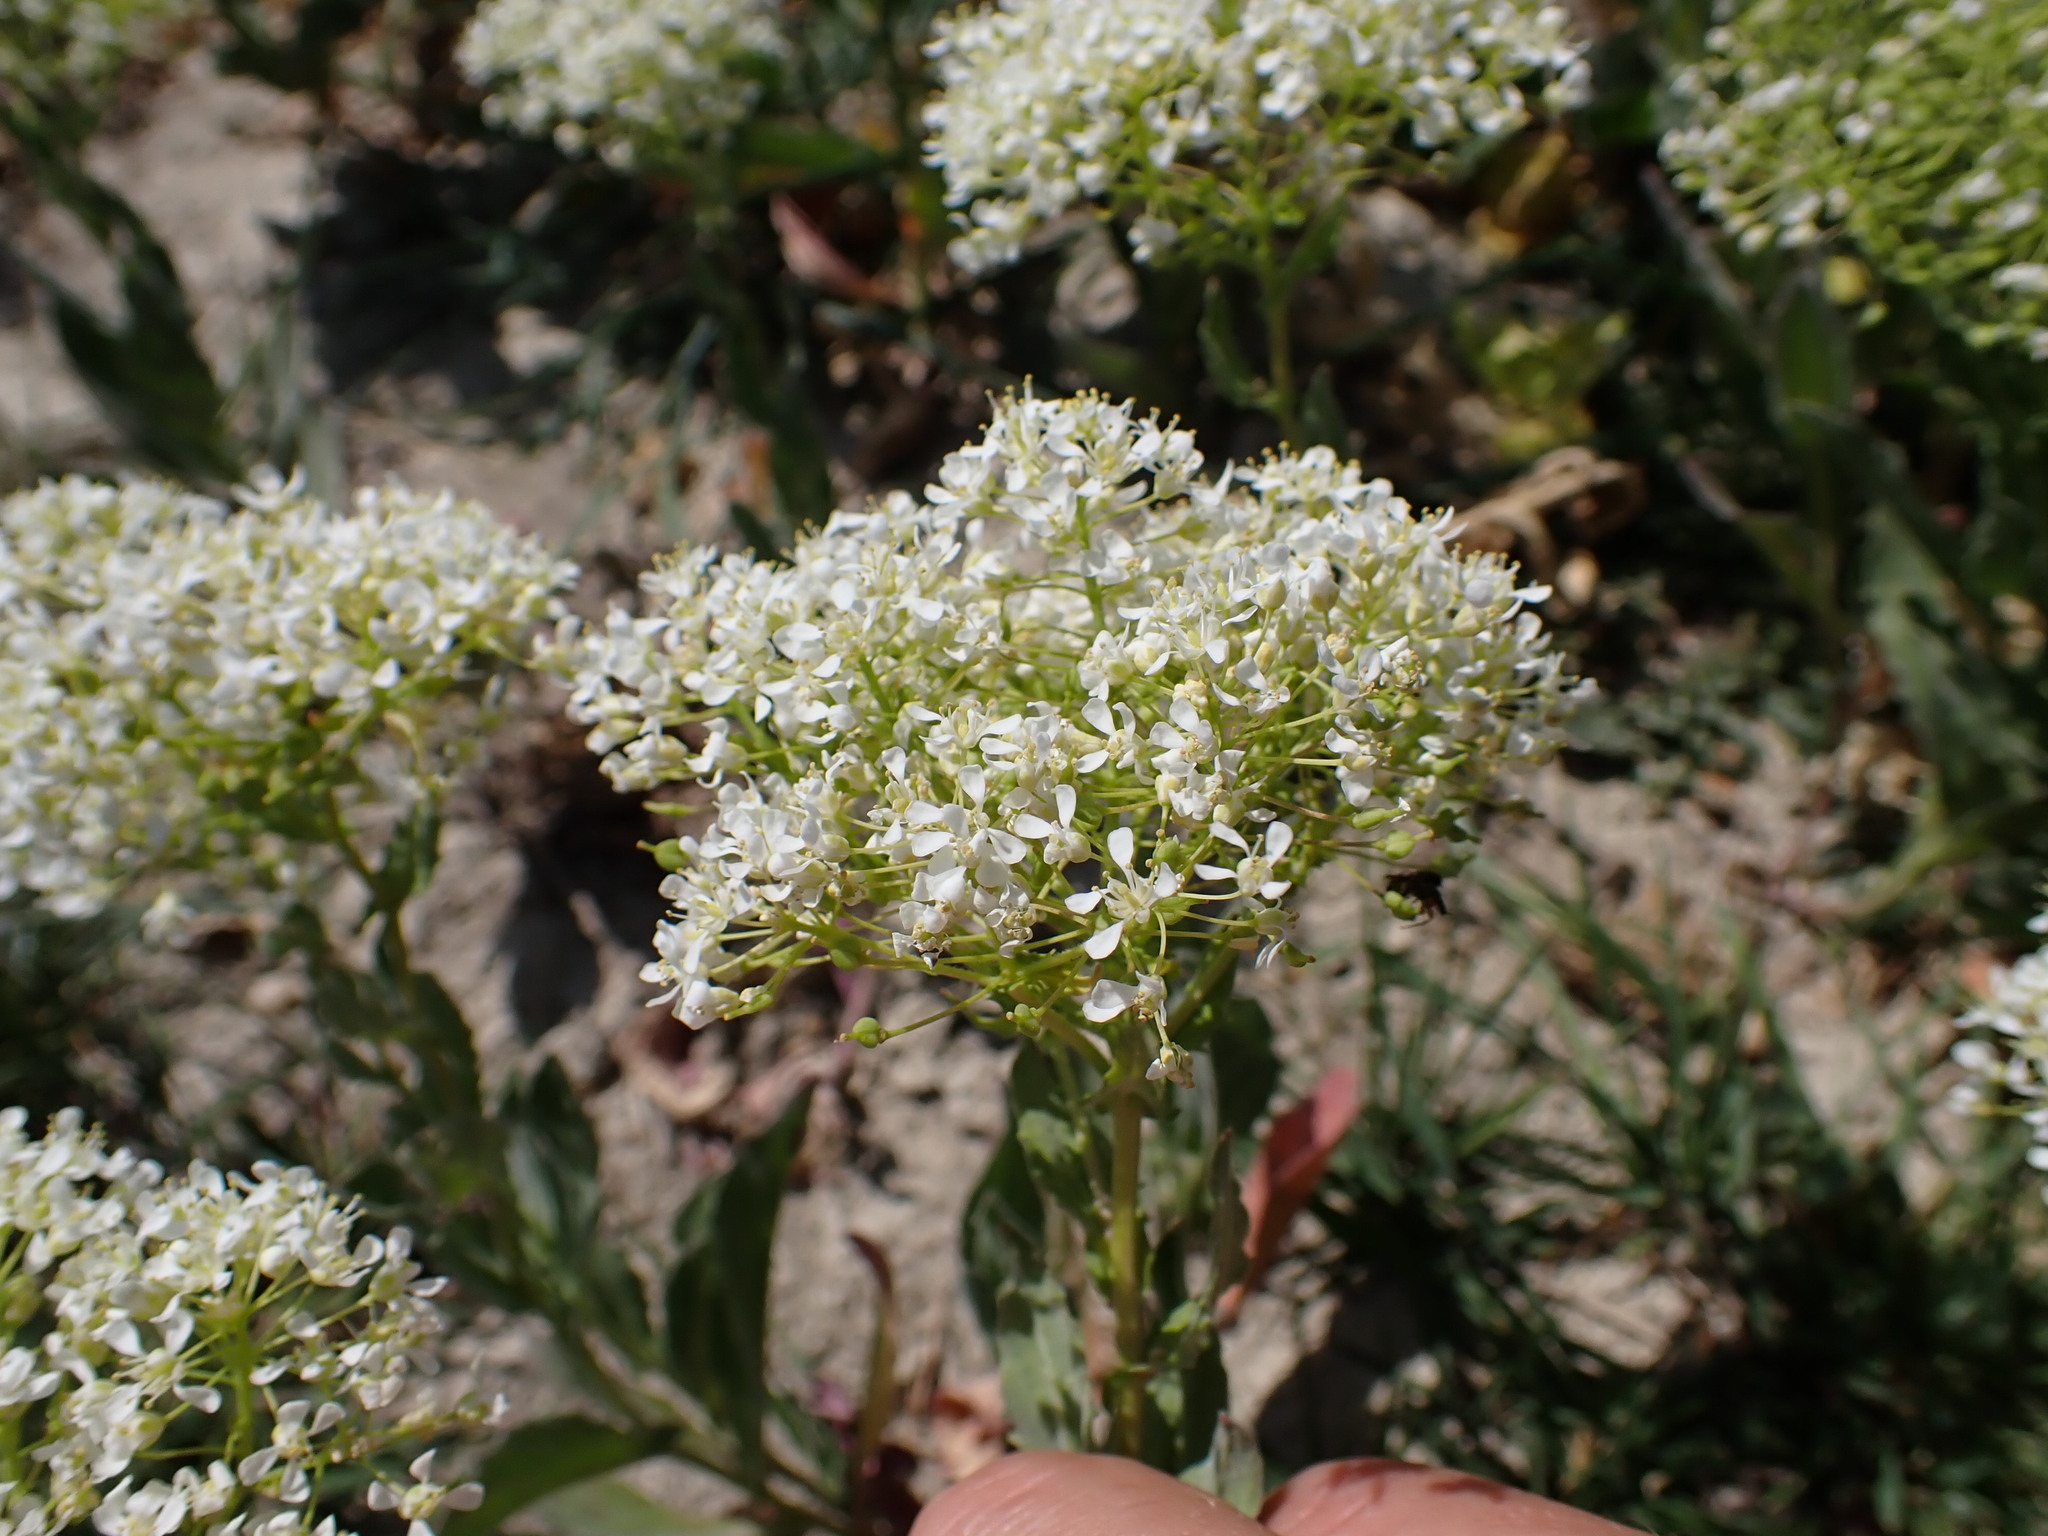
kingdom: Plantae
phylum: Tracheophyta
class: Magnoliopsida
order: Brassicales
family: Brassicaceae
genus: Lepidium
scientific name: Lepidium draba
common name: Hoary cress
